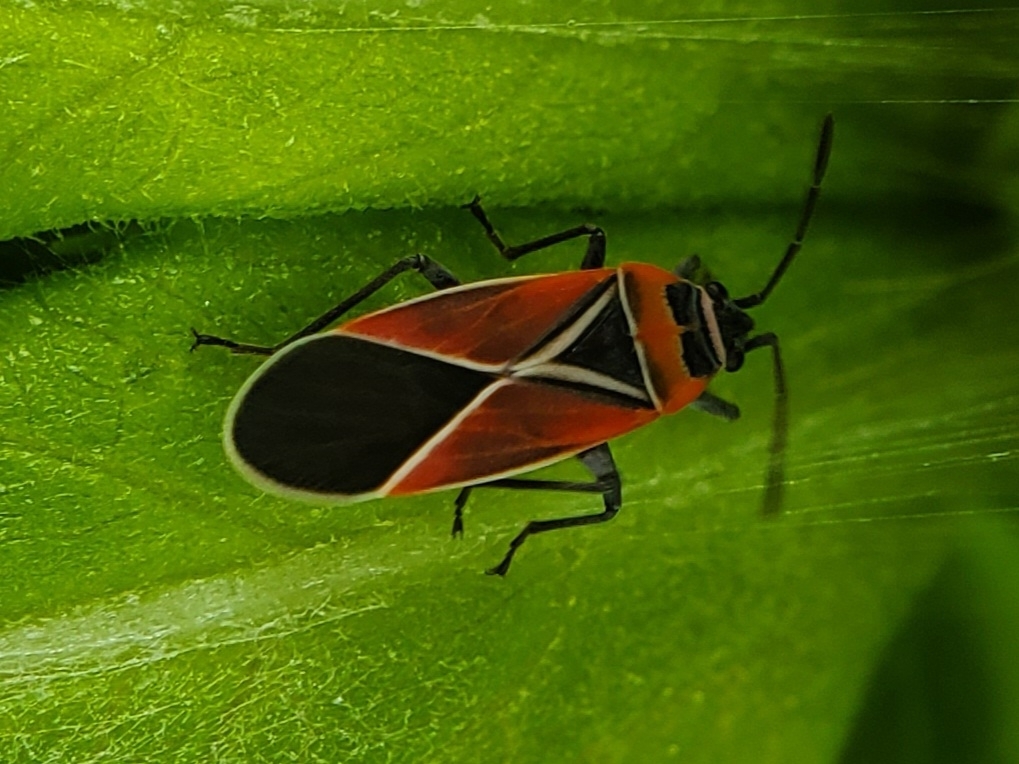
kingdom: Animalia
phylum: Arthropoda
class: Insecta
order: Hemiptera
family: Lygaeidae
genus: Neacoryphus
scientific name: Neacoryphus bicrucis
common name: Lygaeid bug
